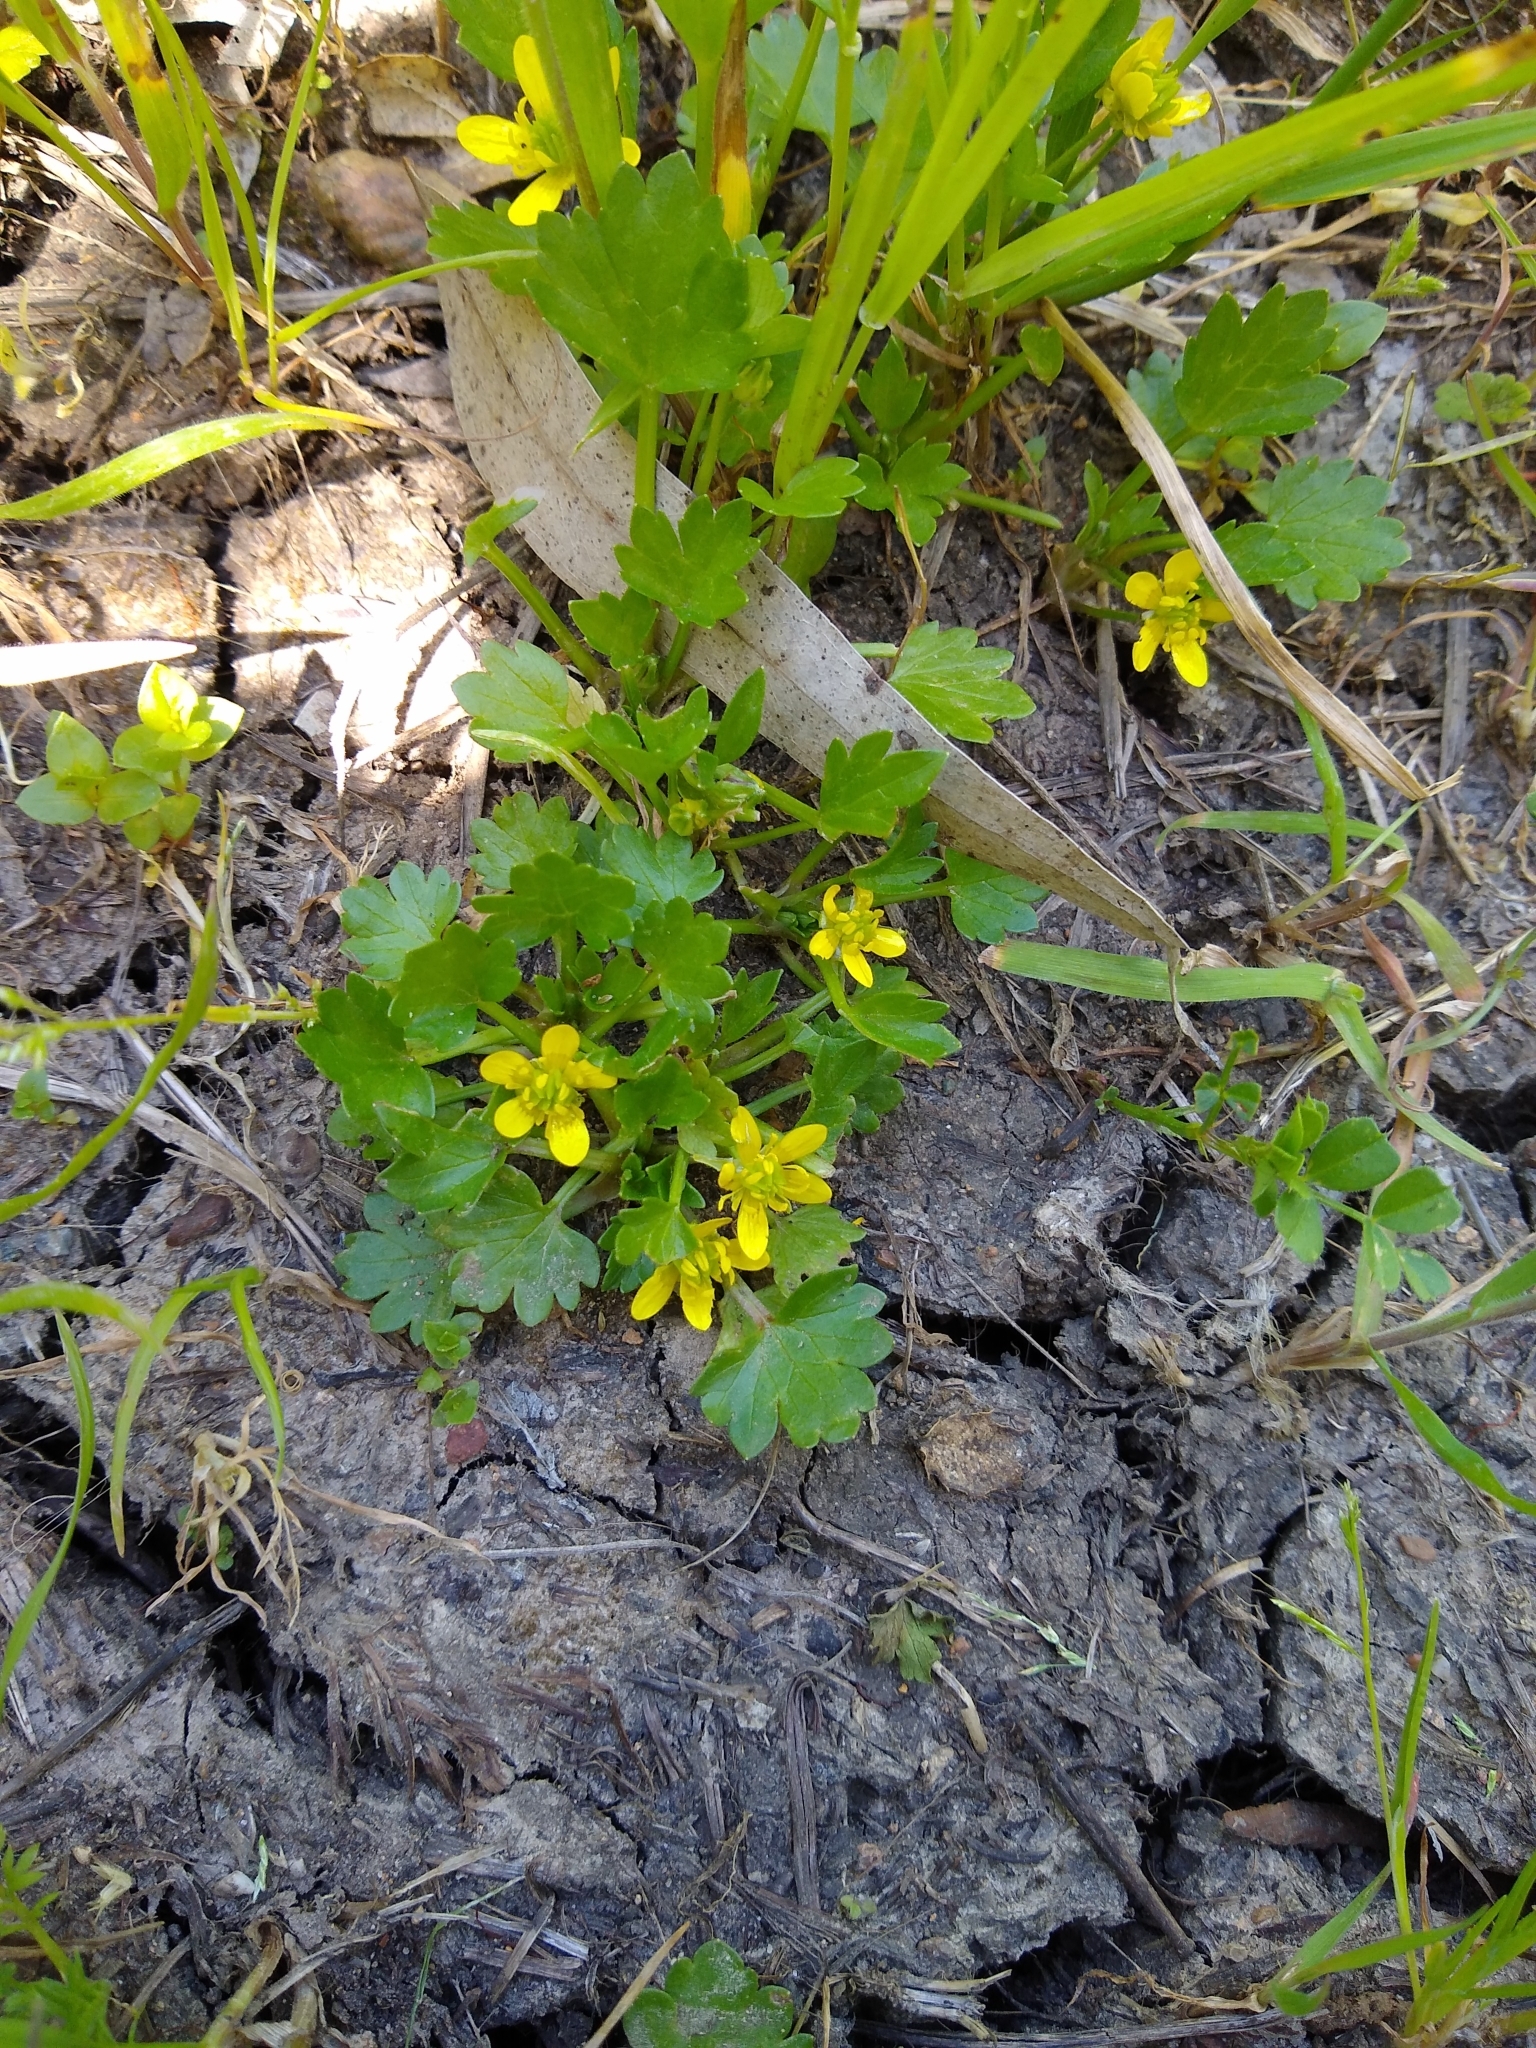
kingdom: Plantae
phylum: Tracheophyta
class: Magnoliopsida
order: Ranunculales
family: Ranunculaceae
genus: Ranunculus
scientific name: Ranunculus muricatus
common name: Rough-fruited buttercup
